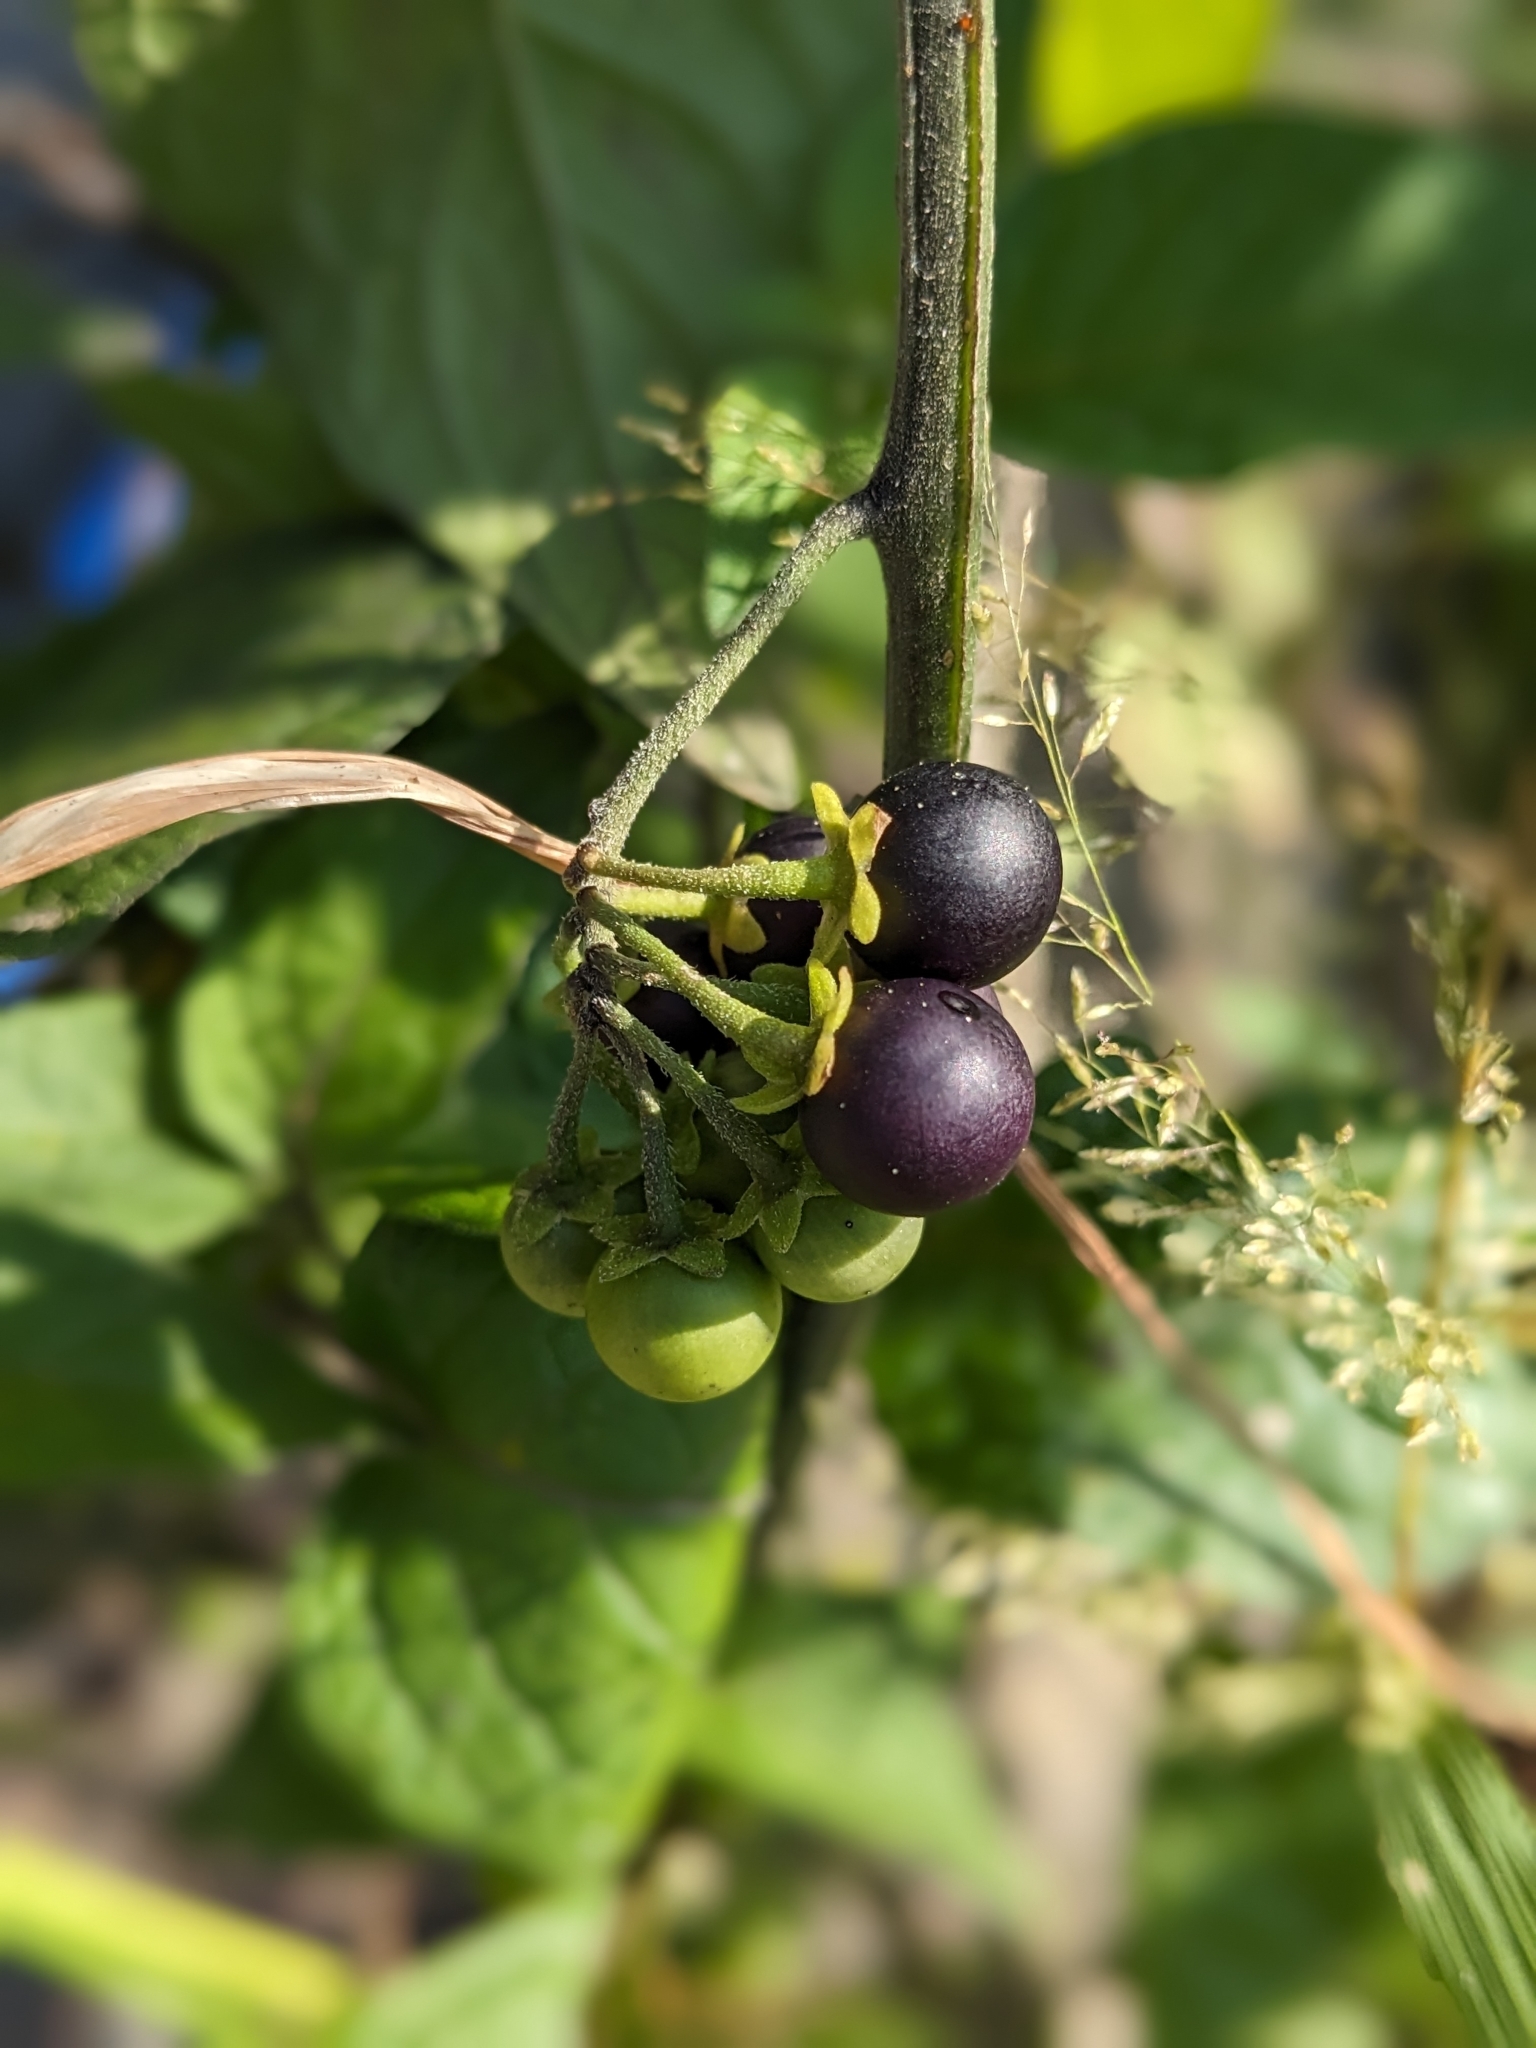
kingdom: Plantae
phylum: Tracheophyta
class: Magnoliopsida
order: Solanales
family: Solanaceae
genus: Solanum
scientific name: Solanum nigrum
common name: Black nightshade
